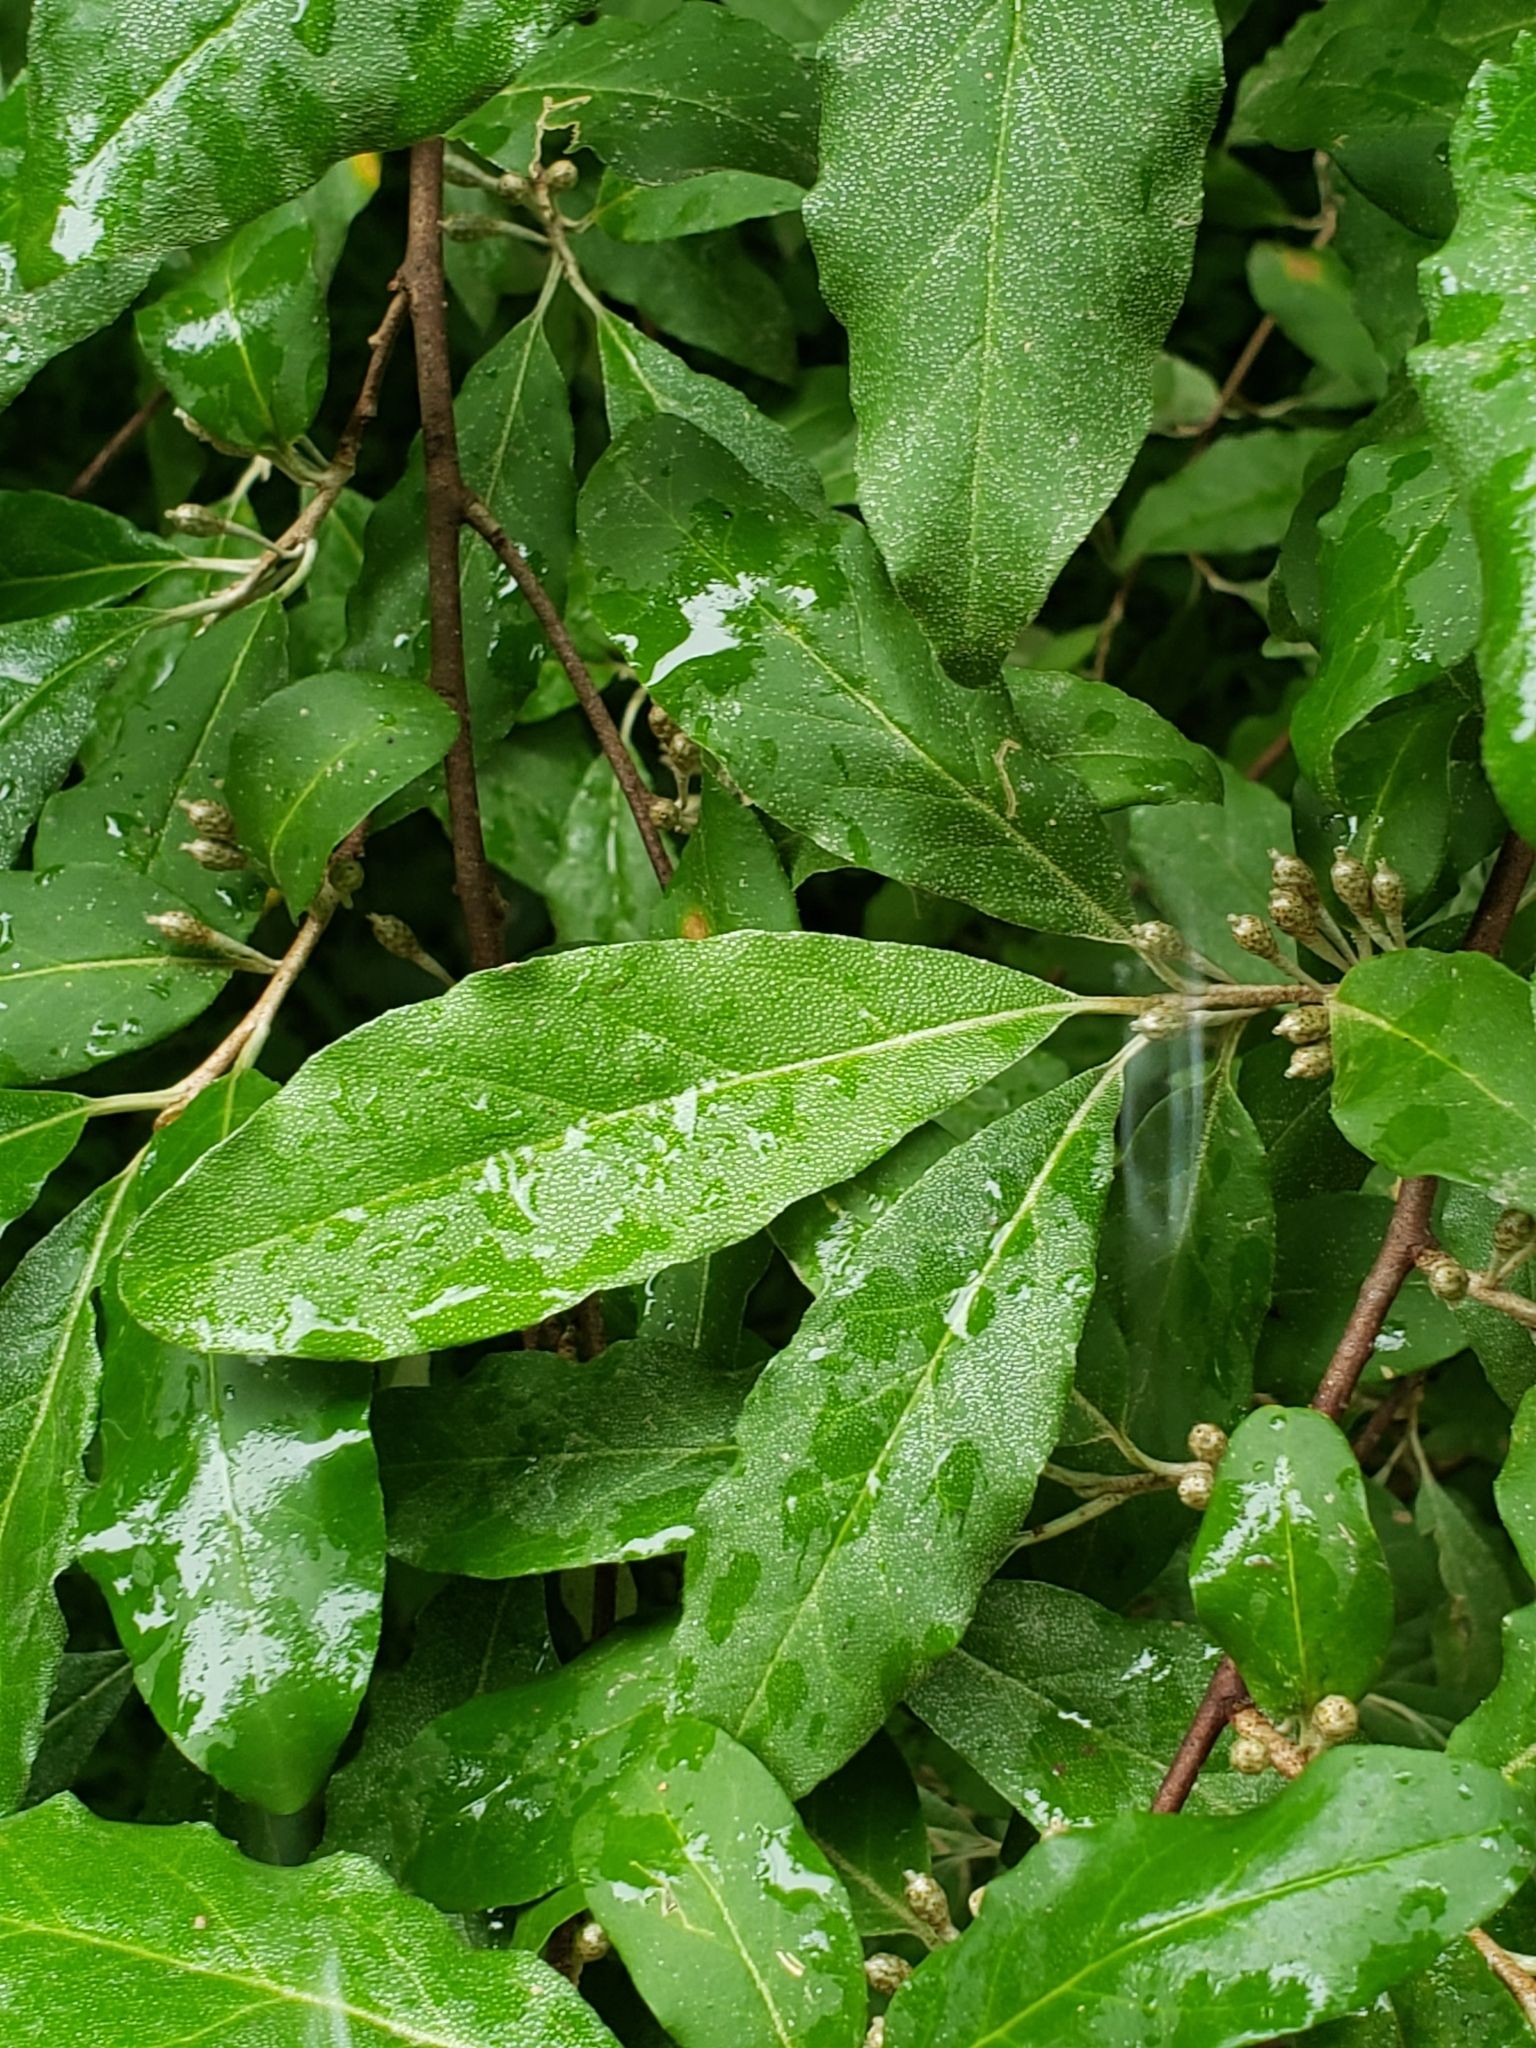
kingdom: Plantae
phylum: Tracheophyta
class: Magnoliopsida
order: Rosales
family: Elaeagnaceae
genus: Elaeagnus
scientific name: Elaeagnus umbellata
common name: Autumn olive
